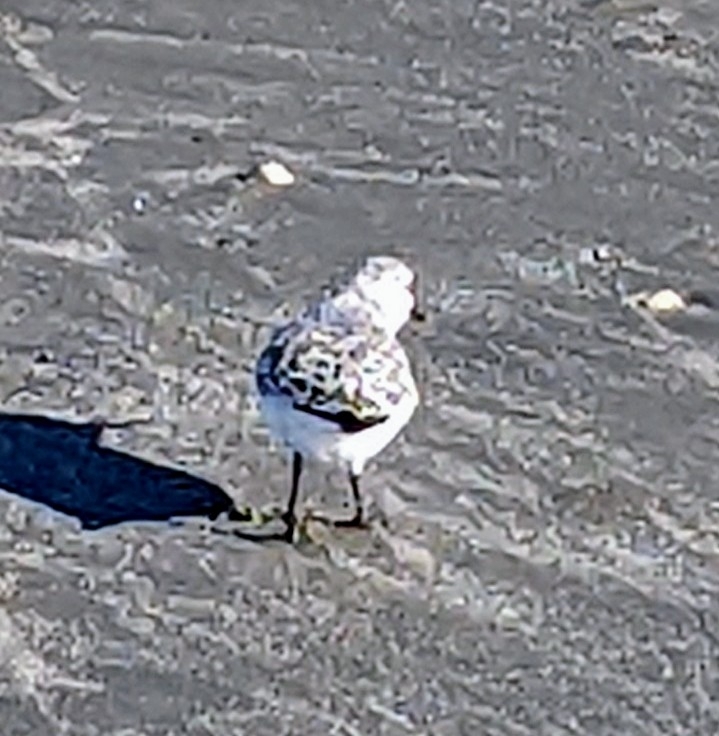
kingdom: Animalia
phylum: Chordata
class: Aves
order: Charadriiformes
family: Scolopacidae
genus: Calidris
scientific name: Calidris alba
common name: Sanderling
